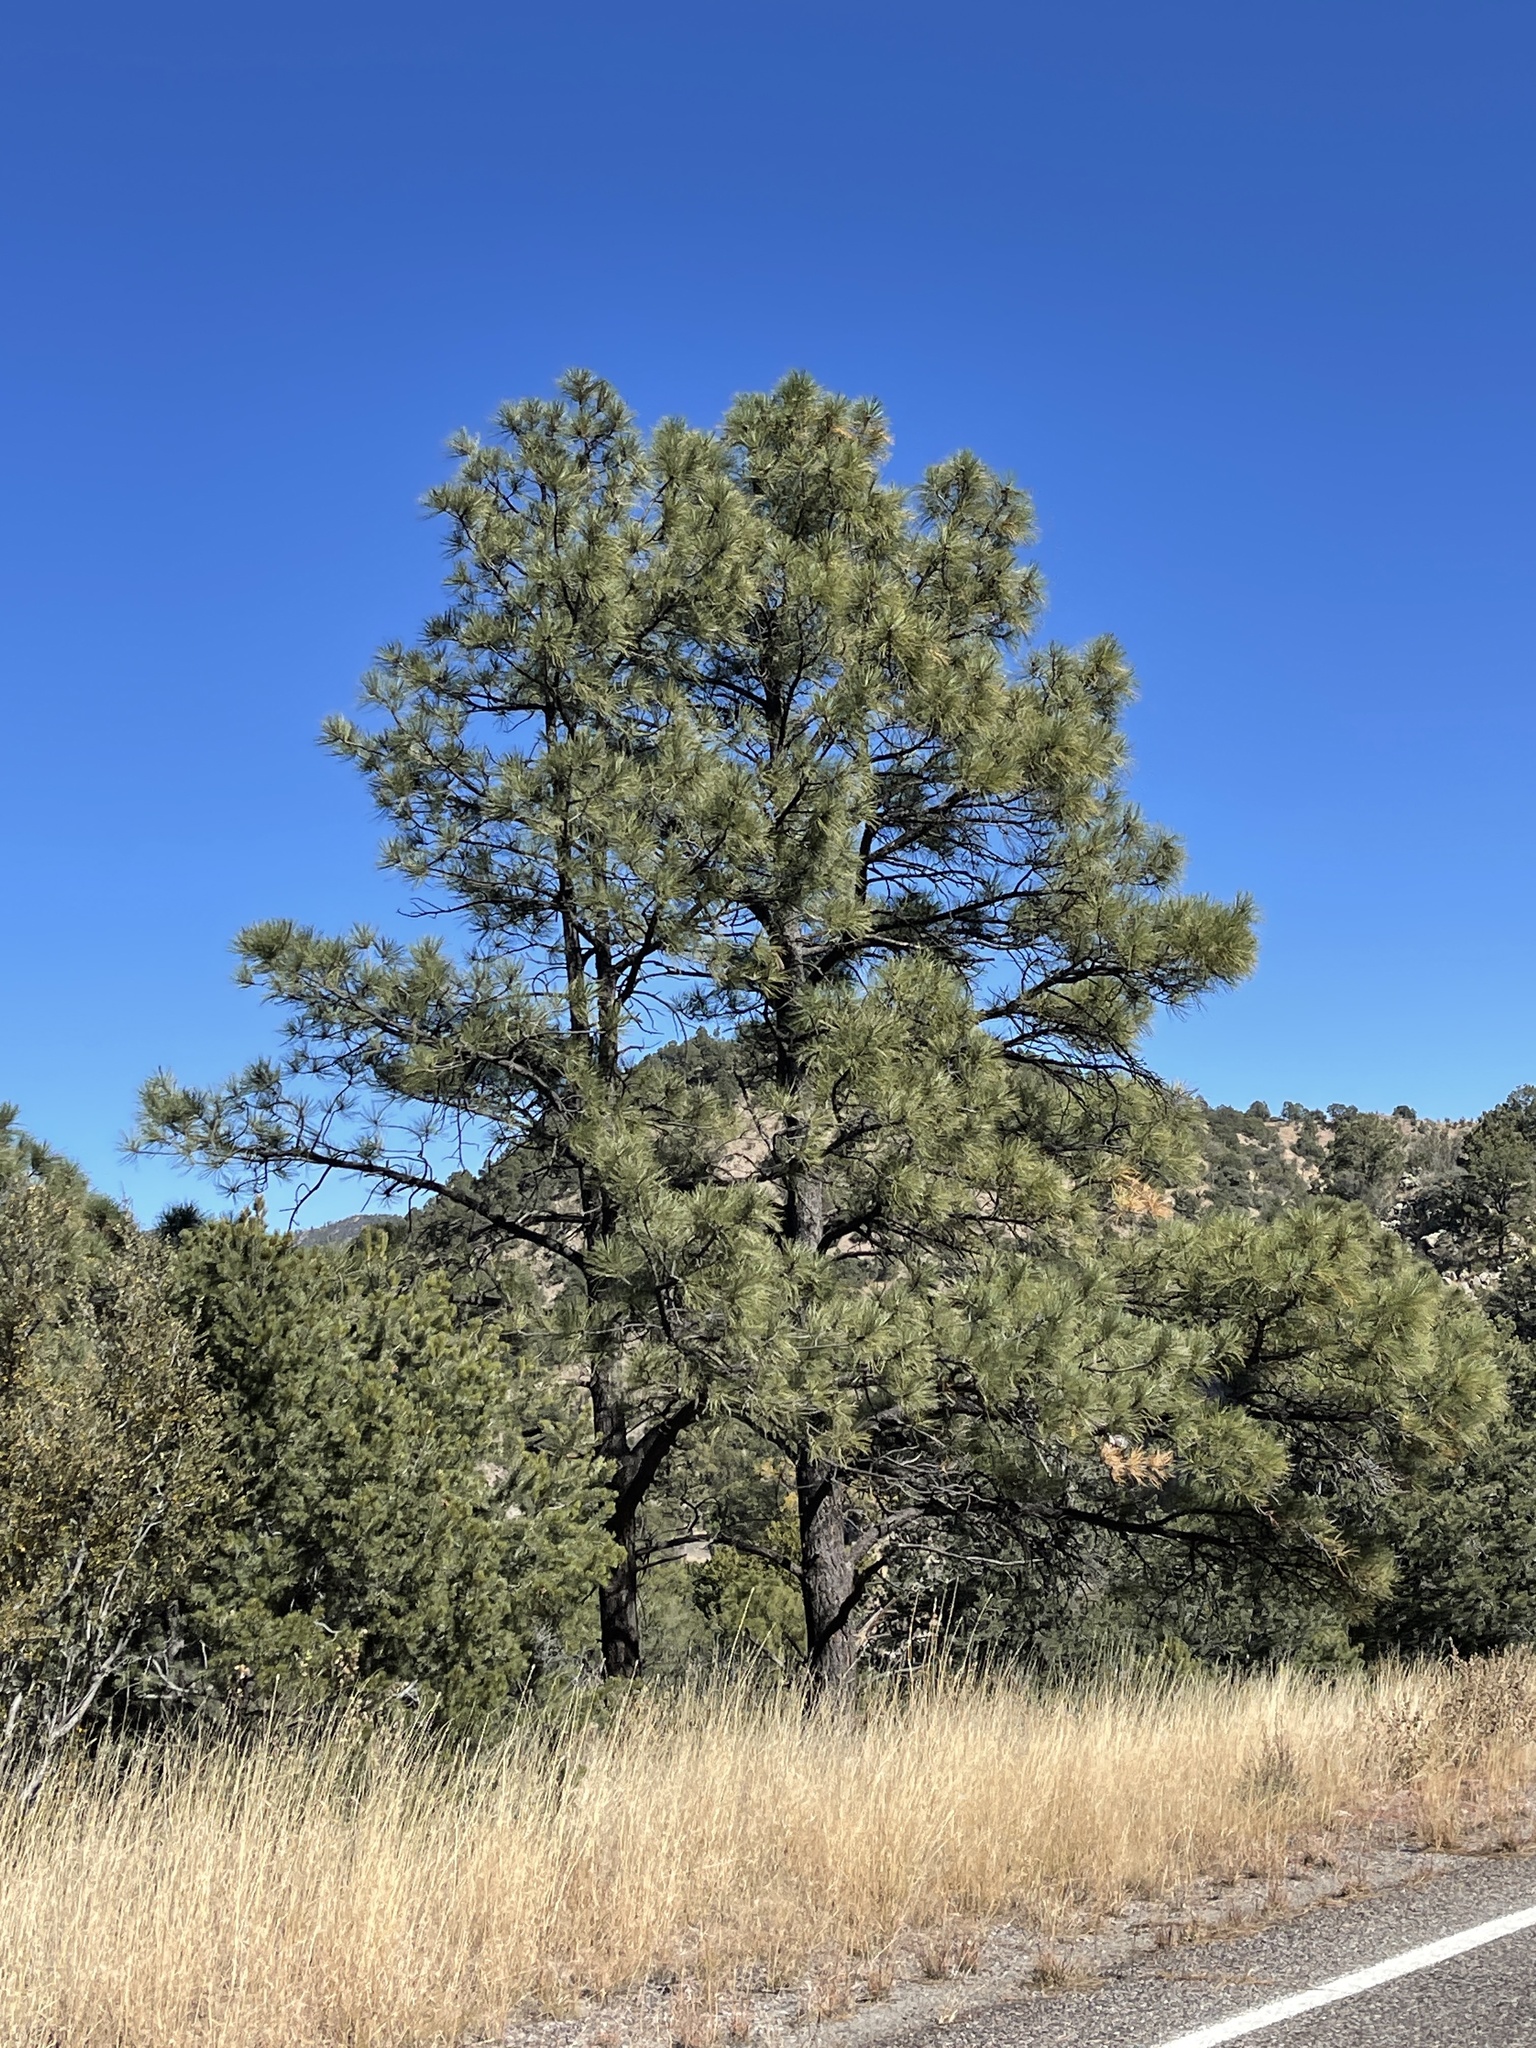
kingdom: Plantae
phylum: Tracheophyta
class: Pinopsida
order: Pinales
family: Pinaceae
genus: Pinus
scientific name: Pinus ponderosa
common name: Western yellow-pine
